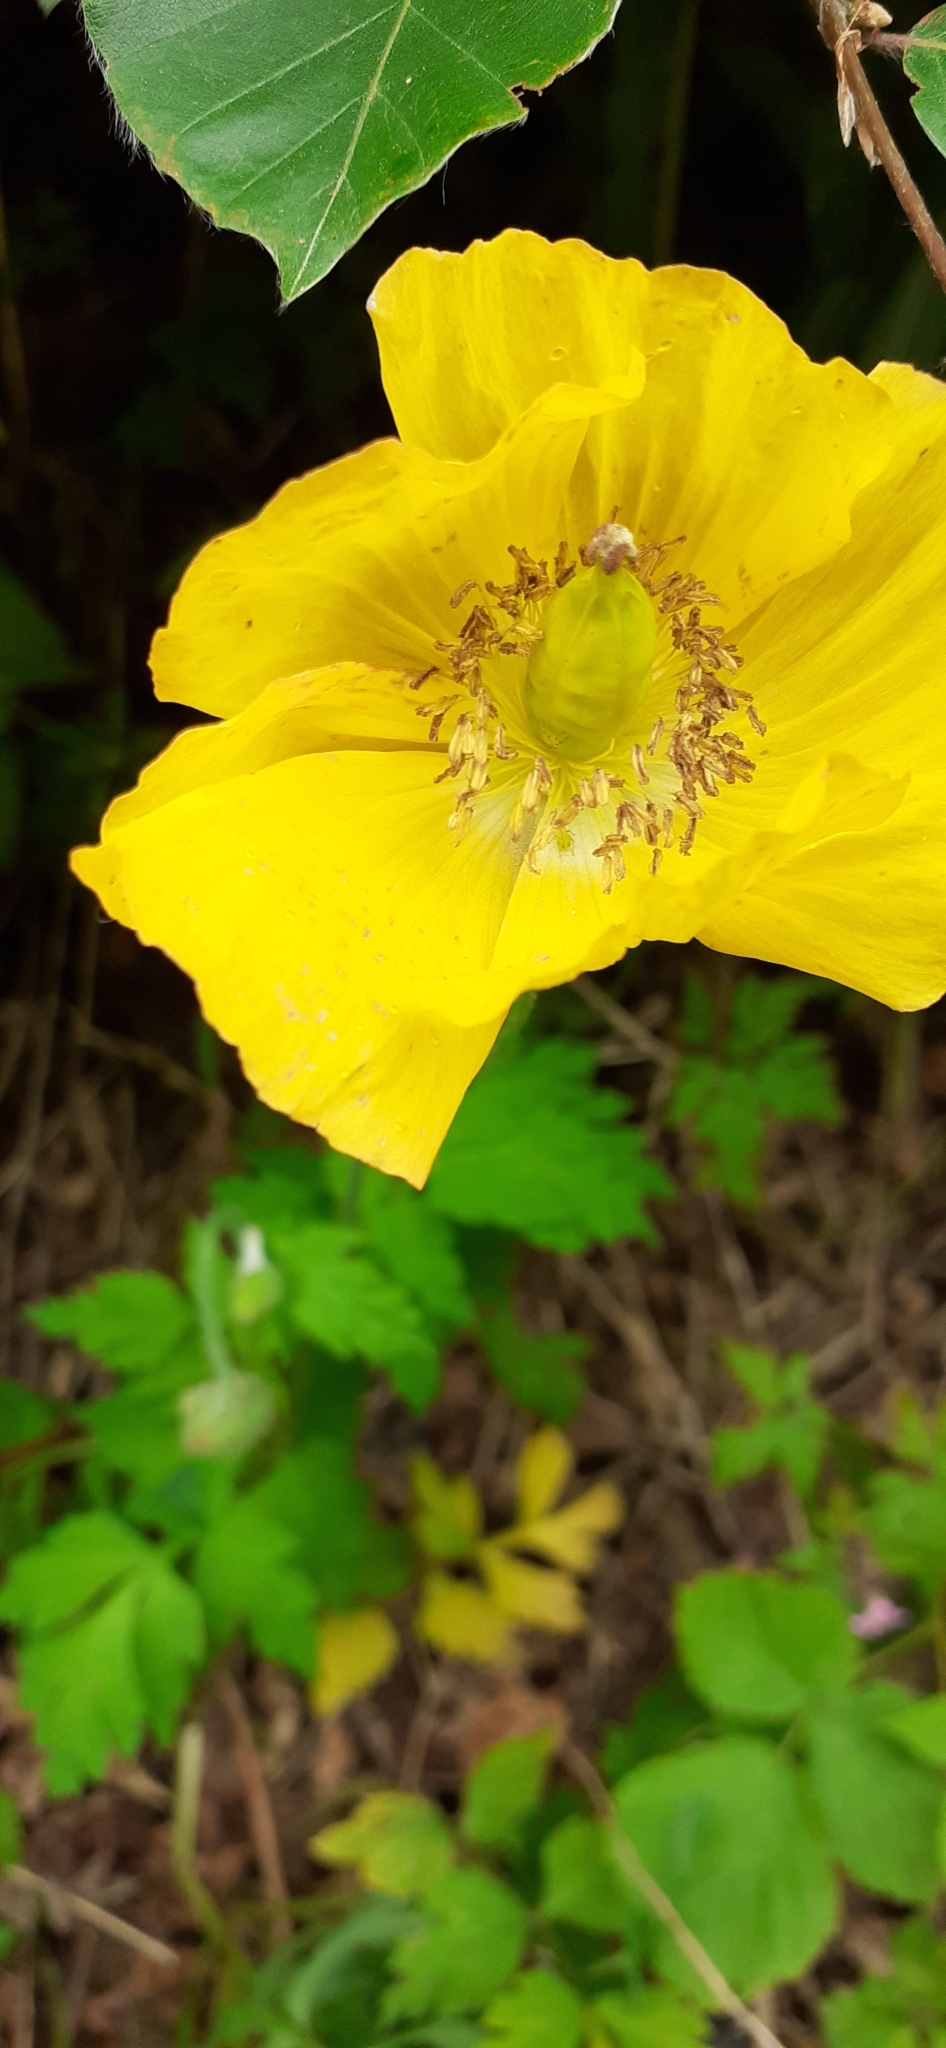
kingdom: Plantae
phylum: Tracheophyta
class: Magnoliopsida
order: Ranunculales
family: Papaveraceae
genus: Papaver
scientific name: Papaver cambricum
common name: Poppy
